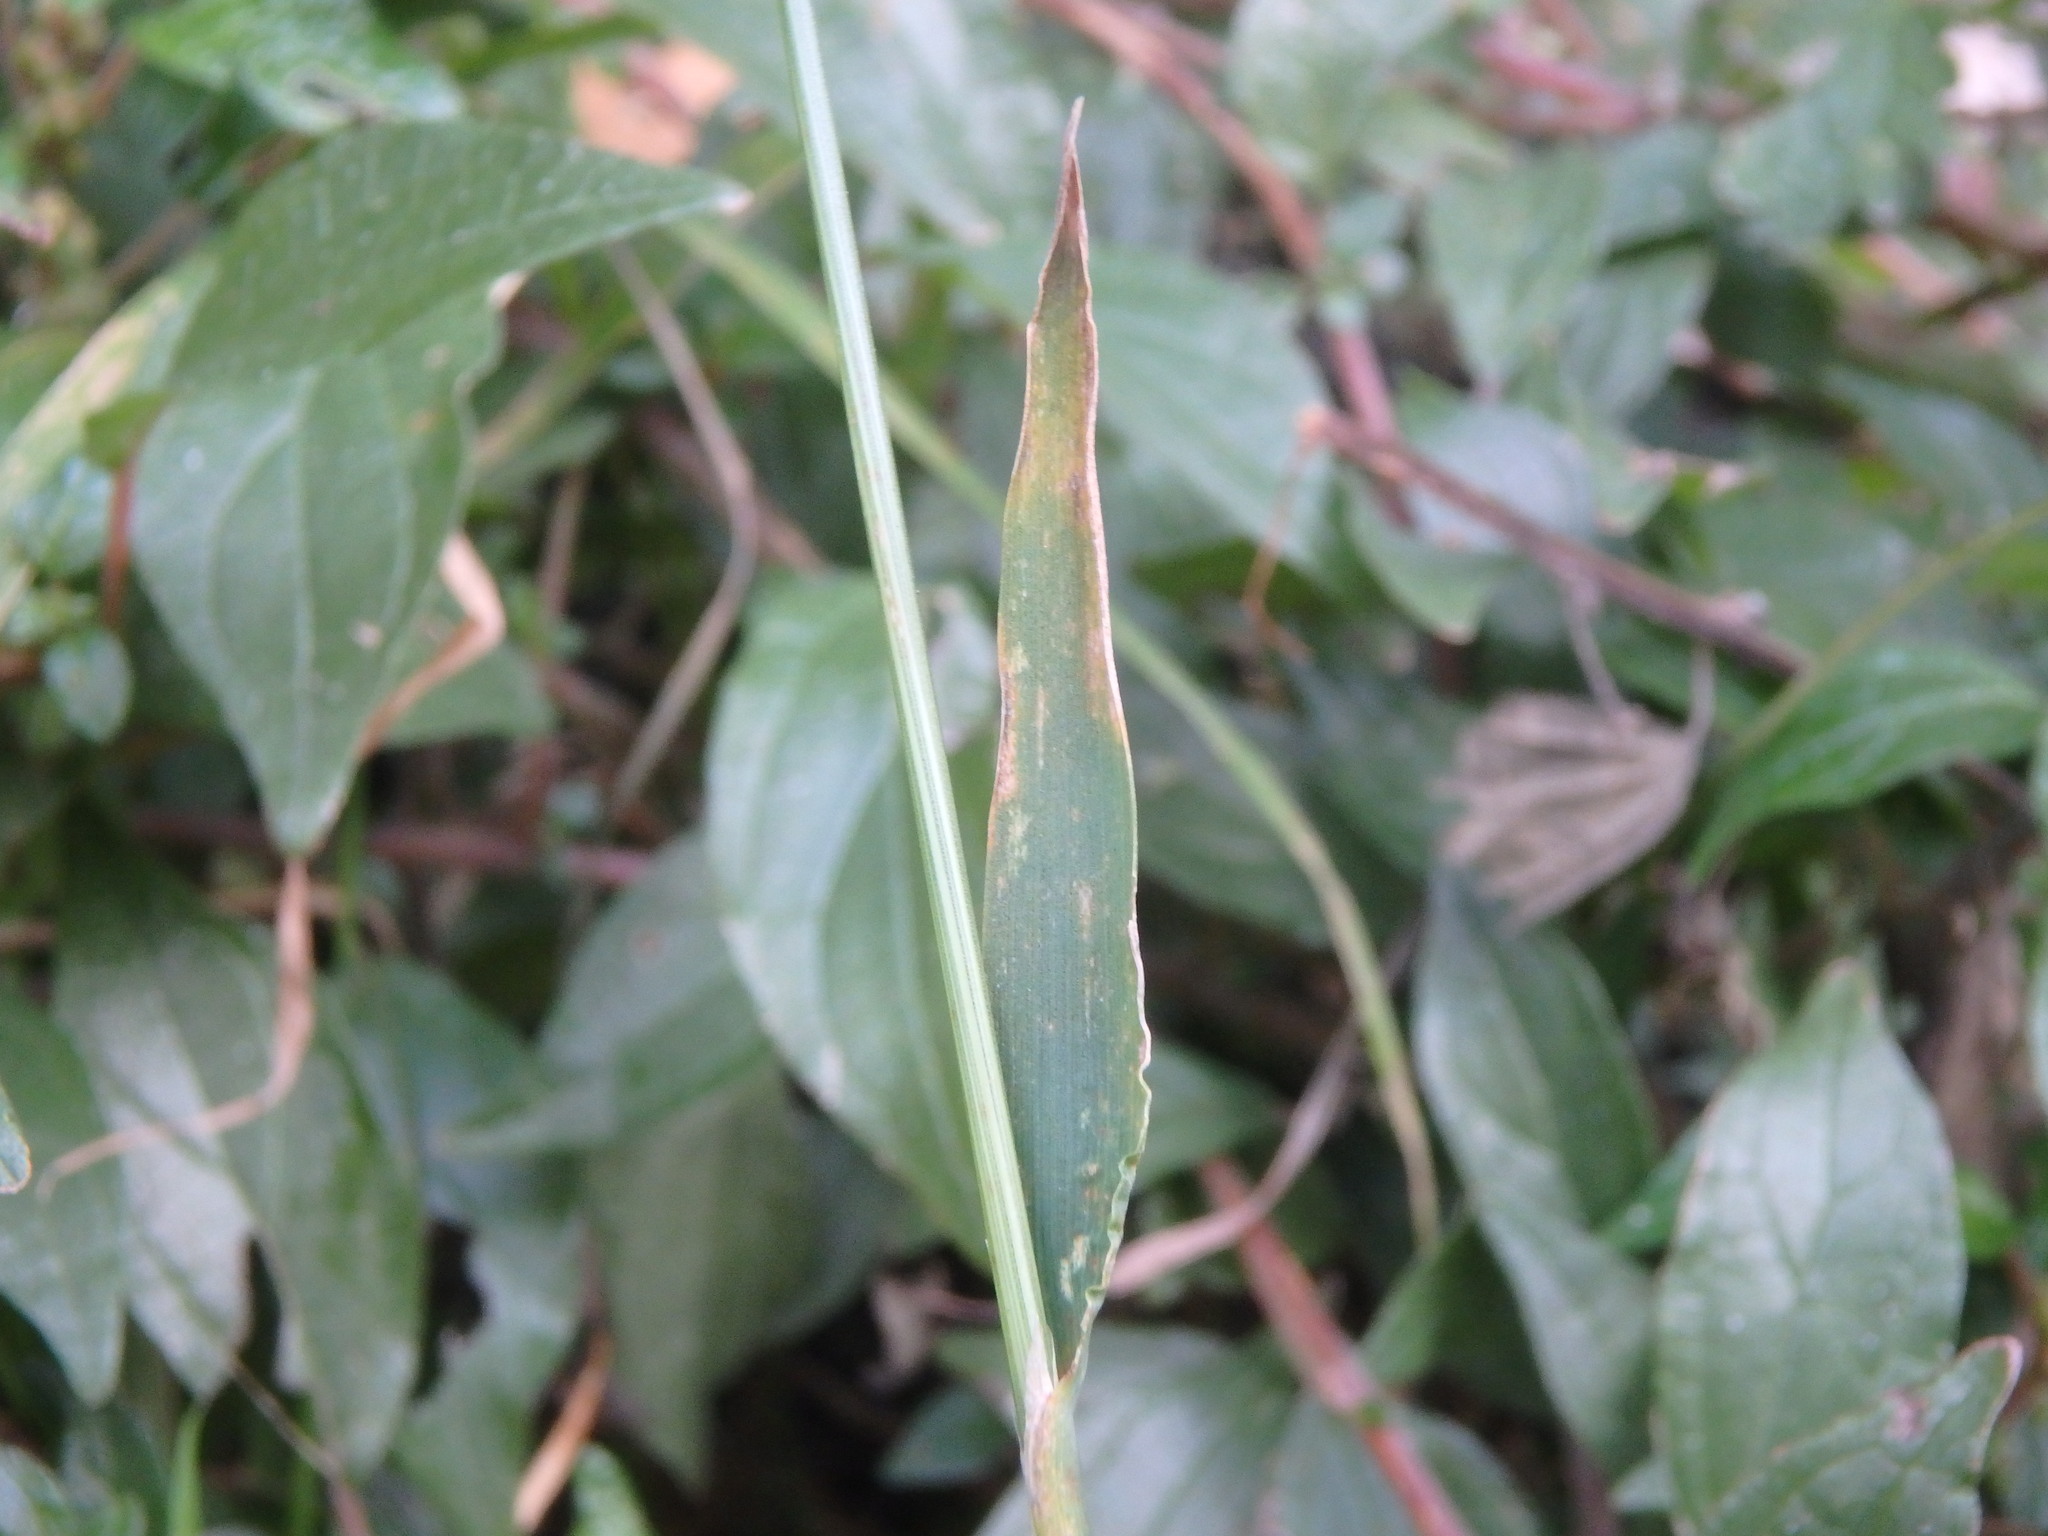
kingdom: Plantae
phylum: Tracheophyta
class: Liliopsida
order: Poales
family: Poaceae
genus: Polypogon
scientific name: Polypogon viridis
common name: Water bent
